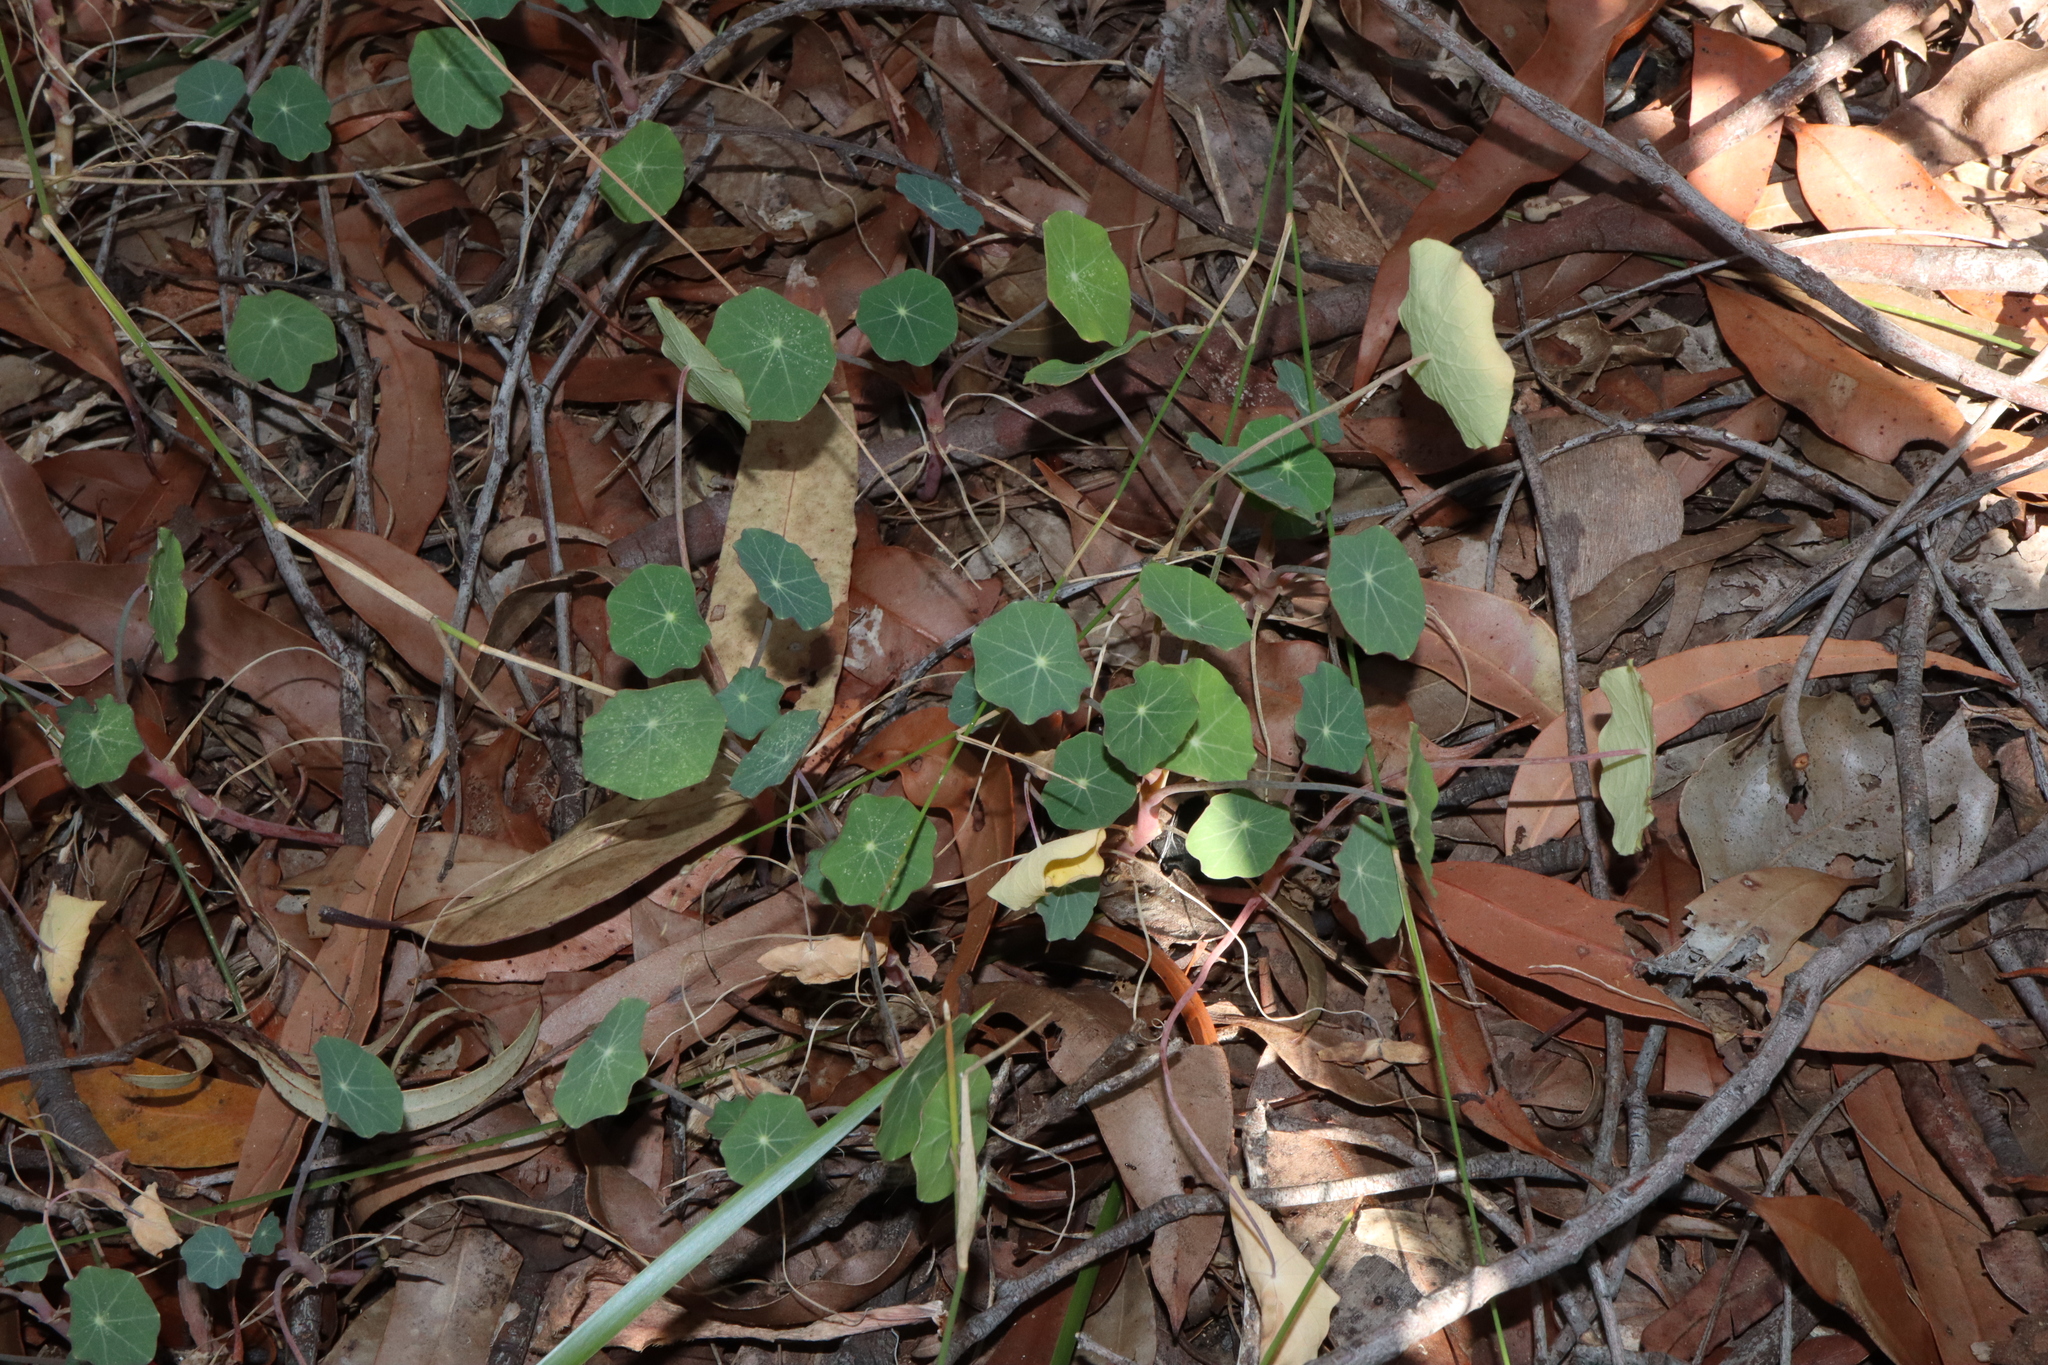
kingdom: Plantae
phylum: Tracheophyta
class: Magnoliopsida
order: Brassicales
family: Tropaeolaceae
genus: Tropaeolum
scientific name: Tropaeolum majus
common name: Nasturtium
